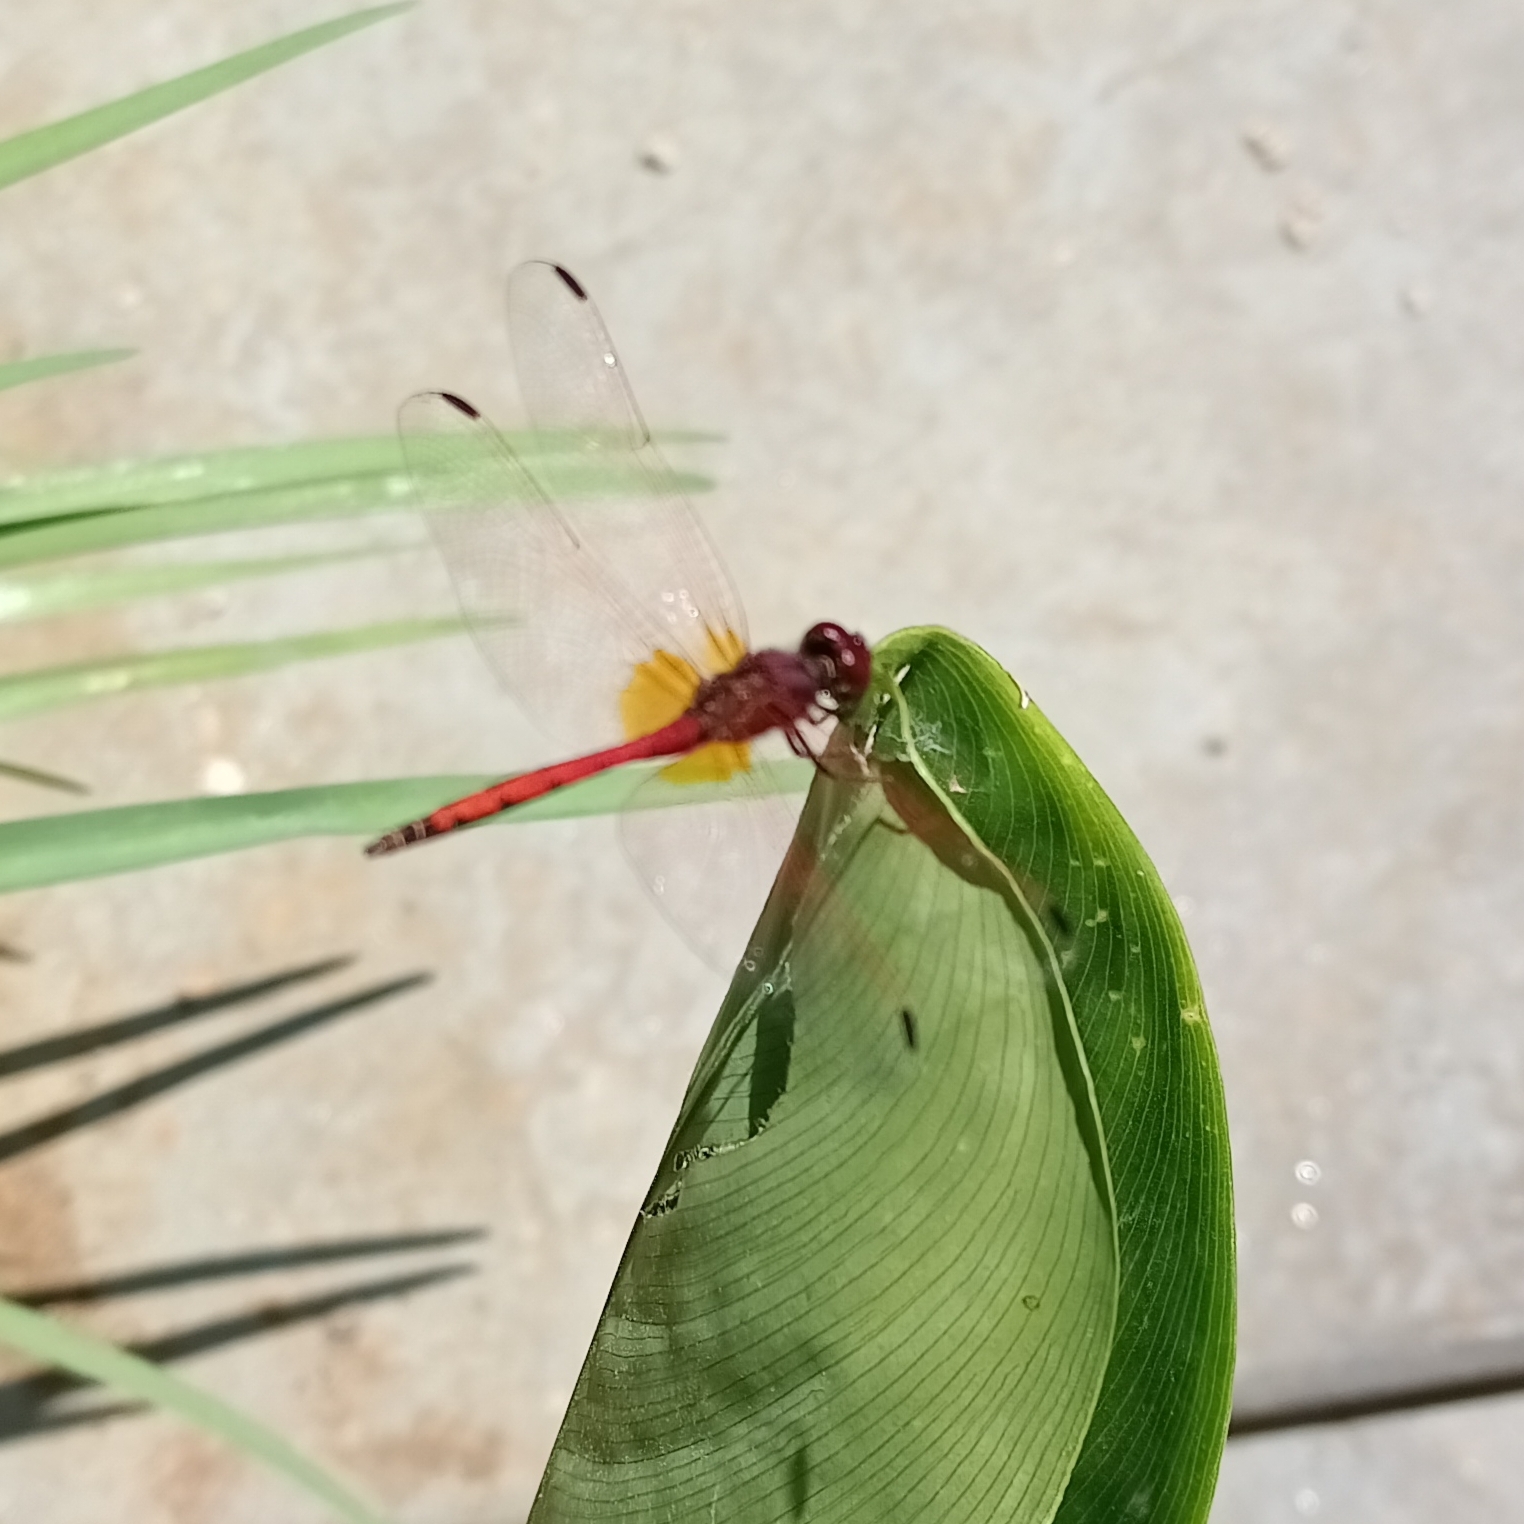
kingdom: Animalia
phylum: Arthropoda
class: Insecta
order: Odonata
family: Libellulidae
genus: Trithemis
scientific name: Trithemis arteriosa
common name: Red-veined dropwing
